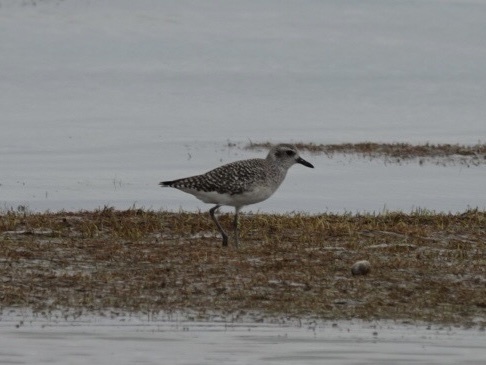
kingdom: Animalia
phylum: Chordata
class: Aves
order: Charadriiformes
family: Charadriidae
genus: Pluvialis
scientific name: Pluvialis squatarola
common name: Grey plover
